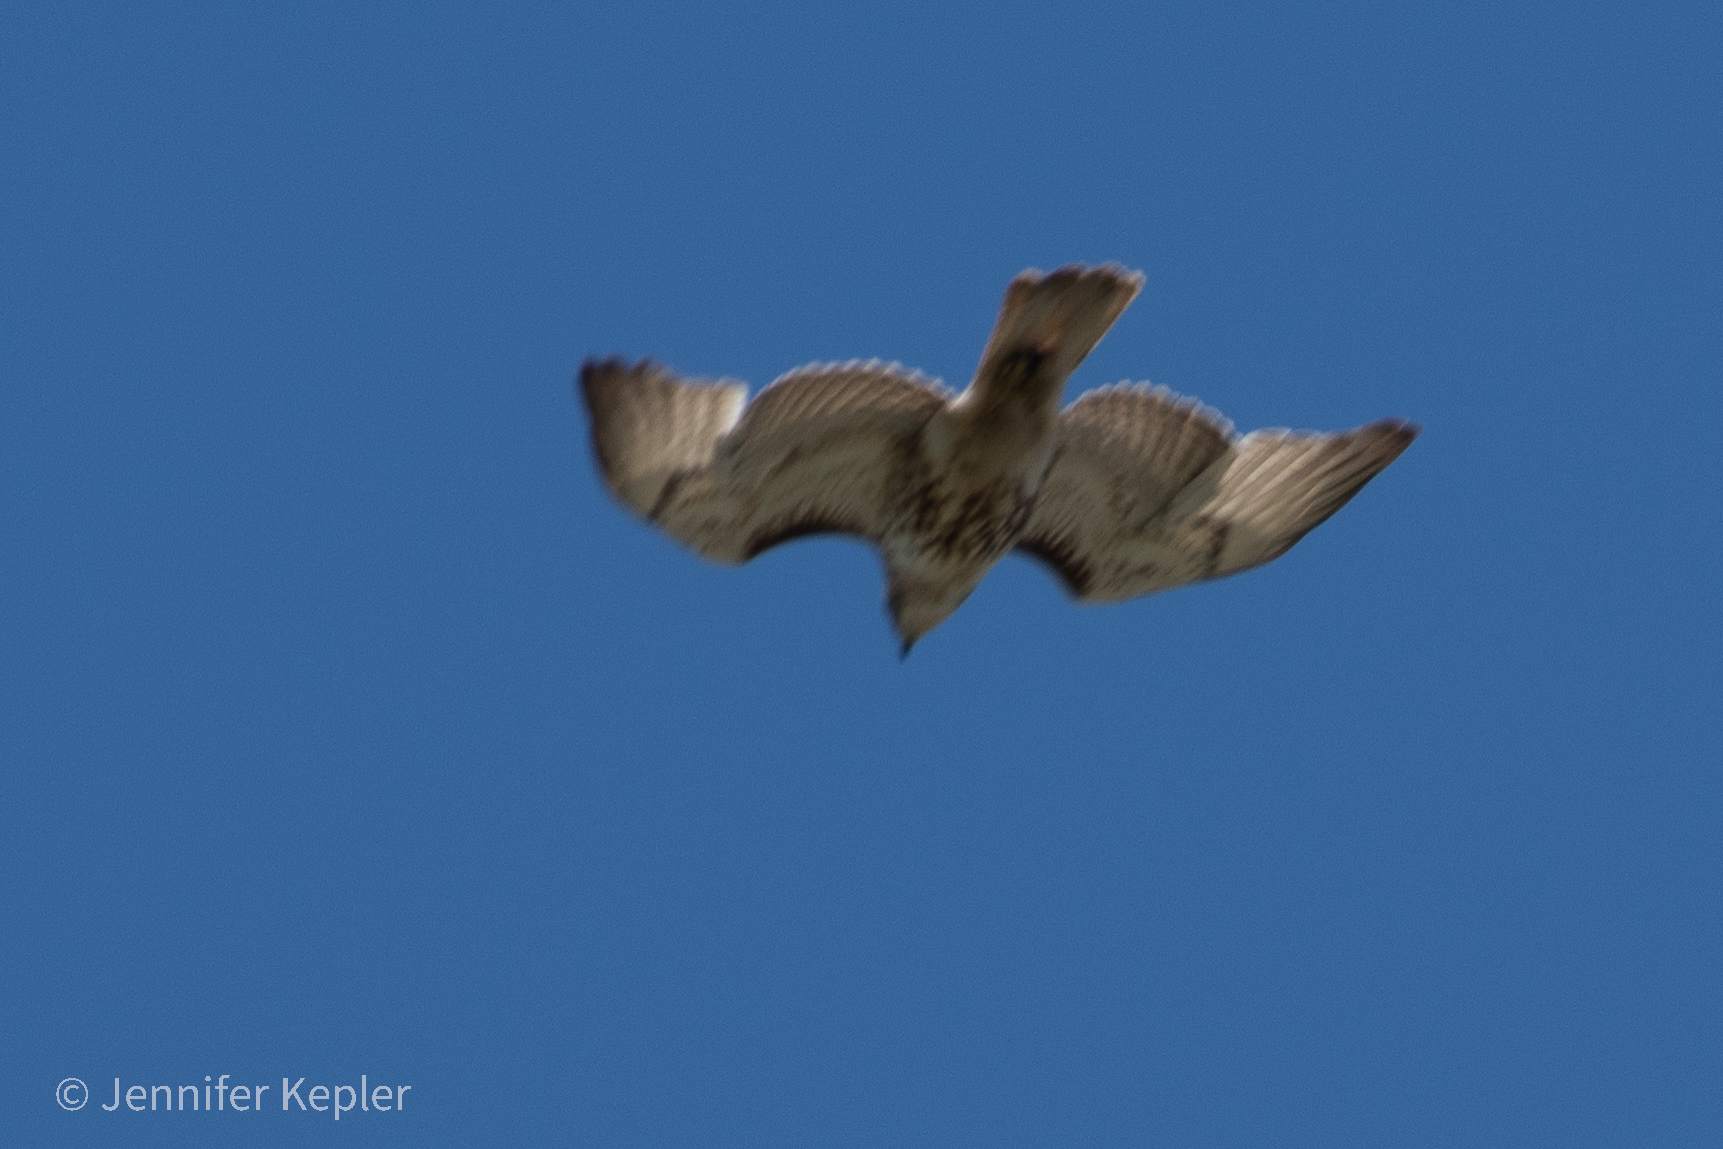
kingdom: Animalia
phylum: Chordata
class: Aves
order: Accipitriformes
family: Accipitridae
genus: Buteo
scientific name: Buteo jamaicensis
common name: Red-tailed hawk
